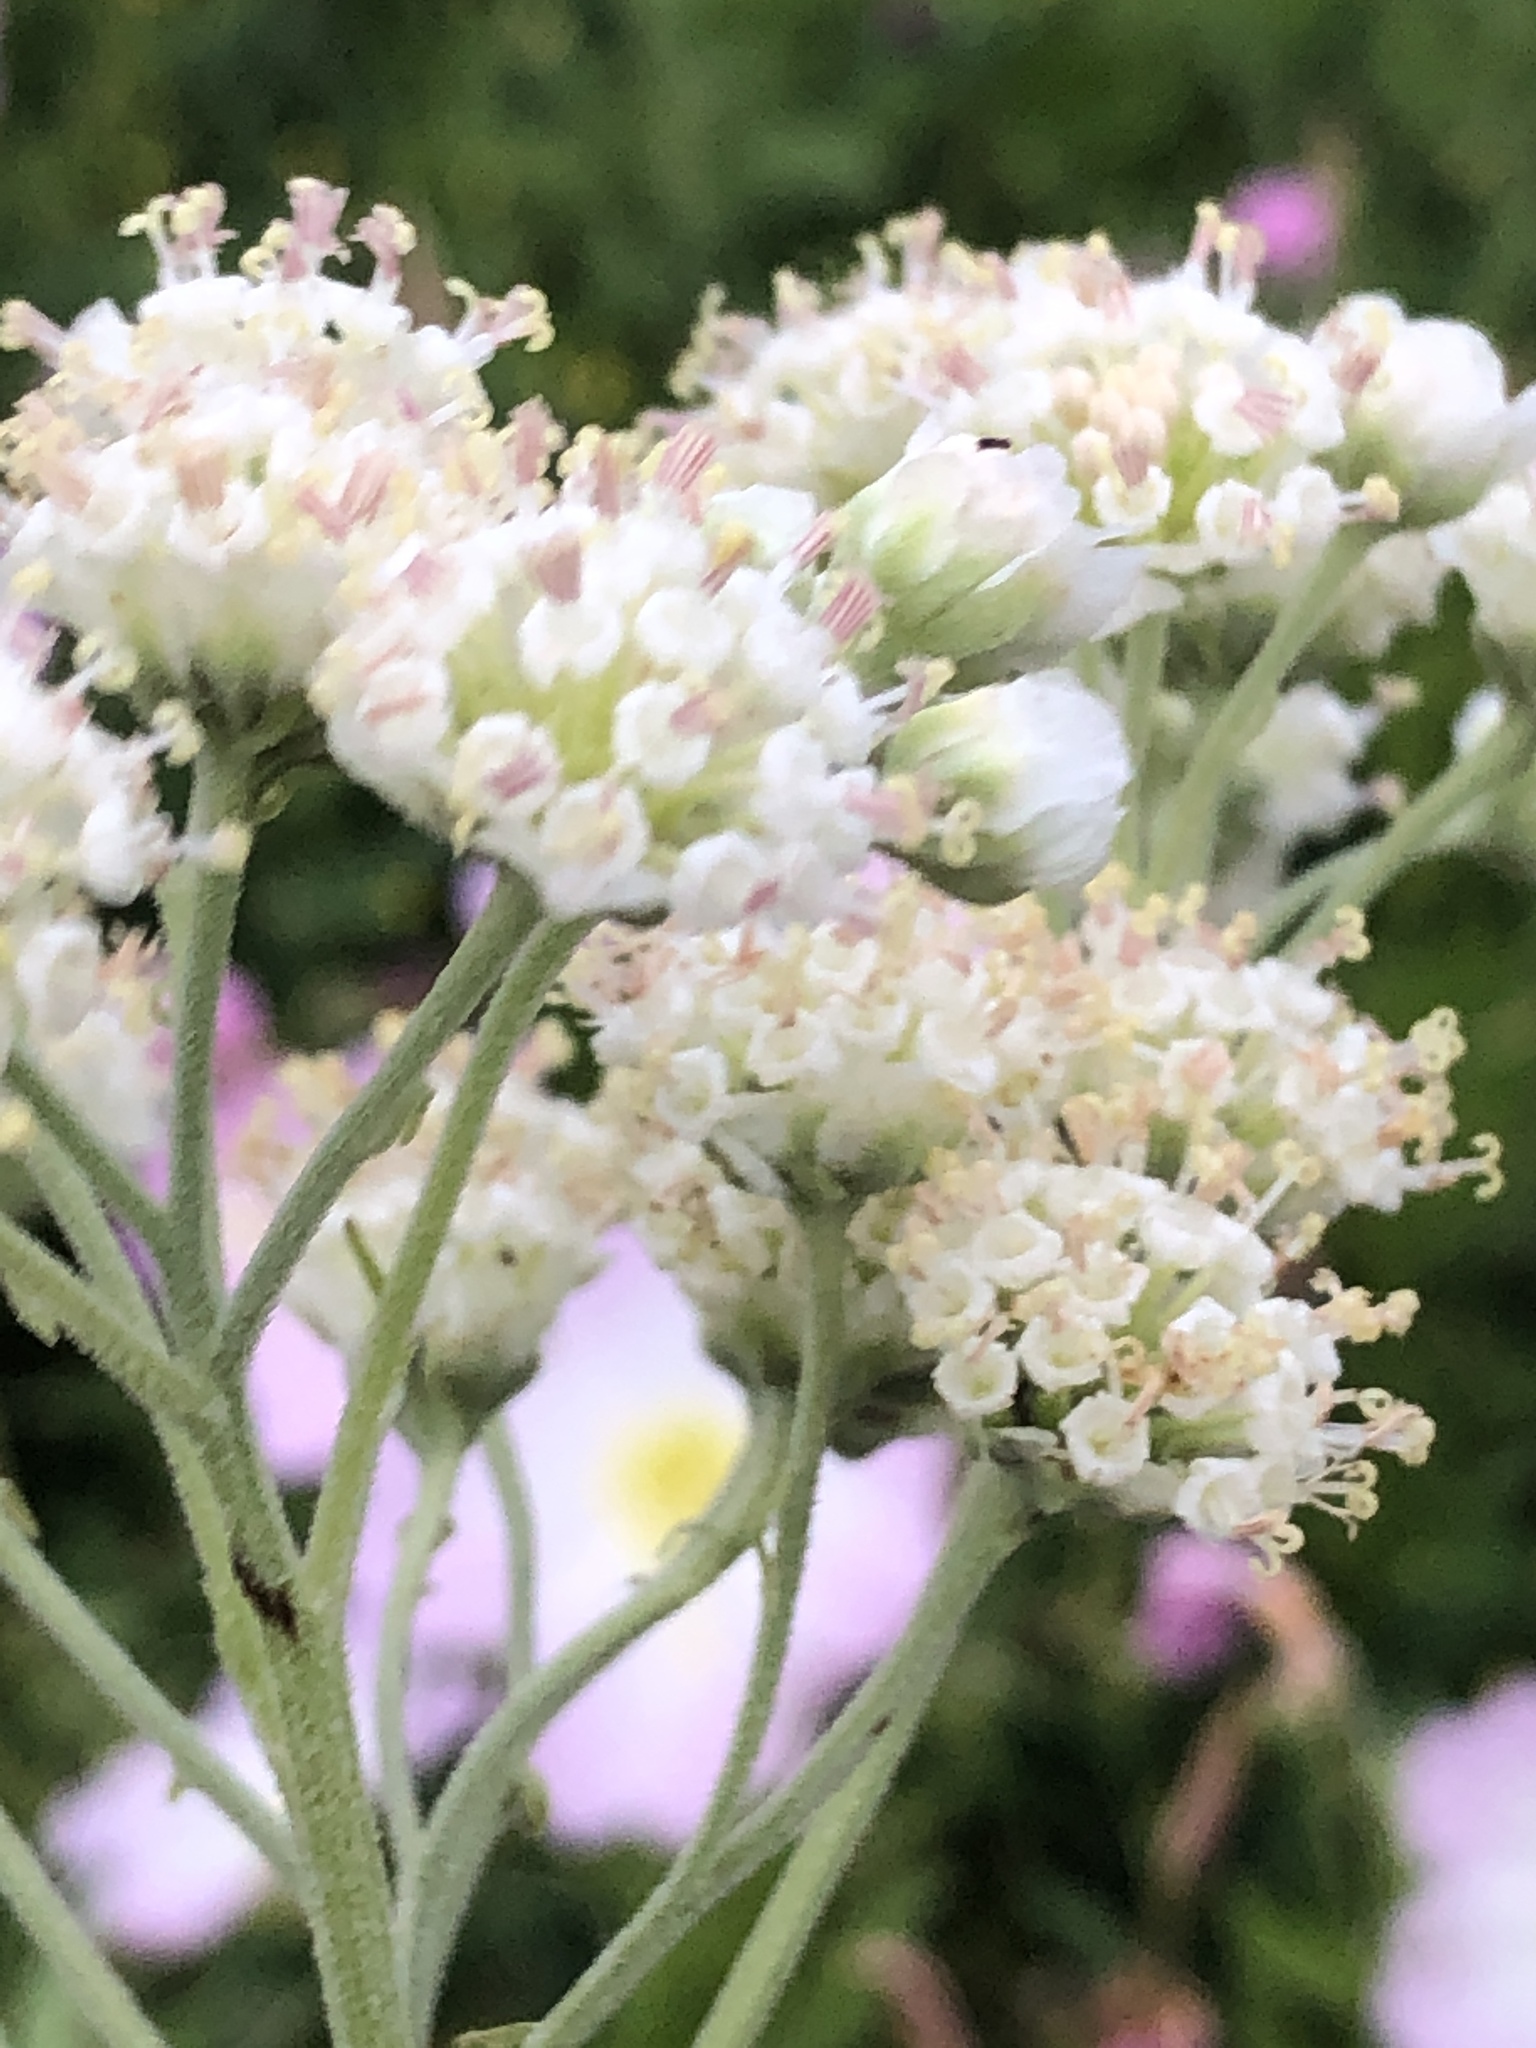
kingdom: Plantae
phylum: Tracheophyta
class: Magnoliopsida
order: Asterales
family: Asteraceae
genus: Hymenopappus
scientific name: Hymenopappus artemisiifolius
